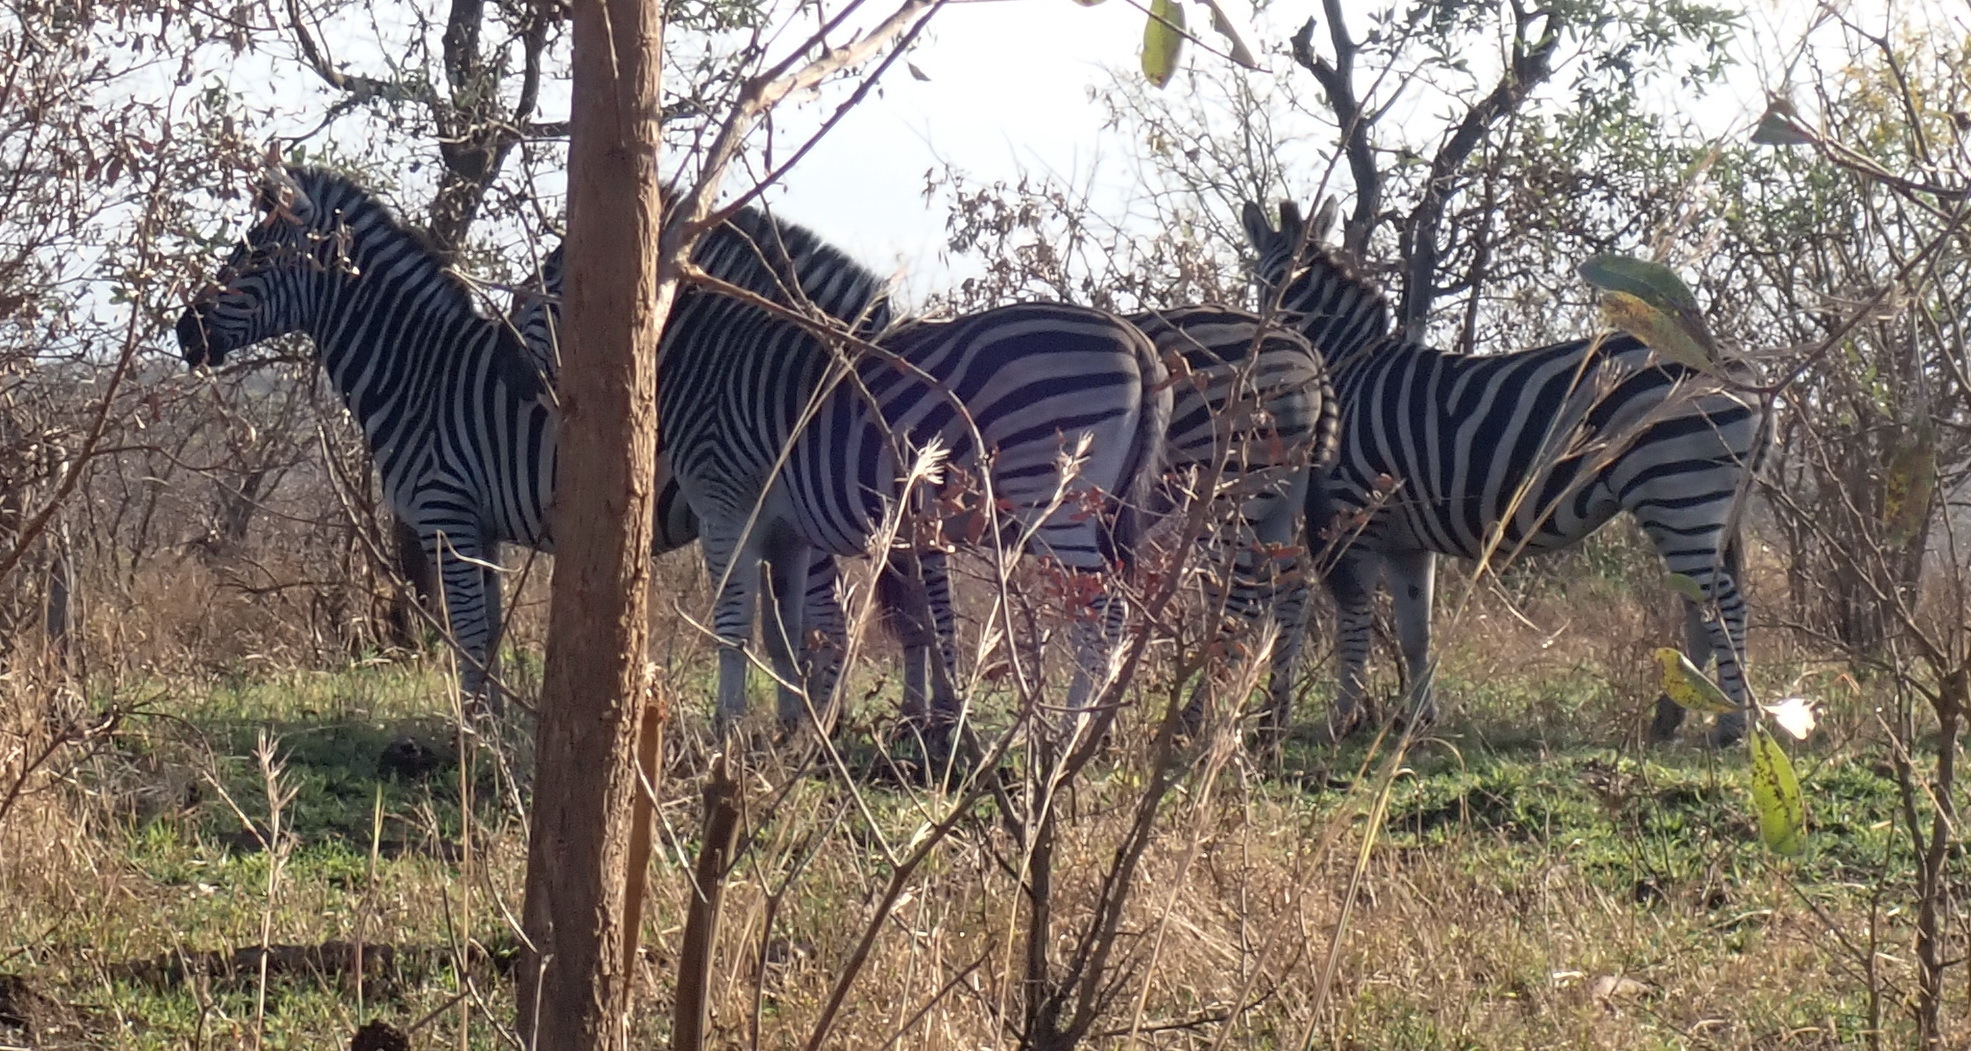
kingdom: Animalia
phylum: Chordata
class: Mammalia
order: Perissodactyla
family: Equidae
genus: Equus
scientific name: Equus quagga
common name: Plains zebra
